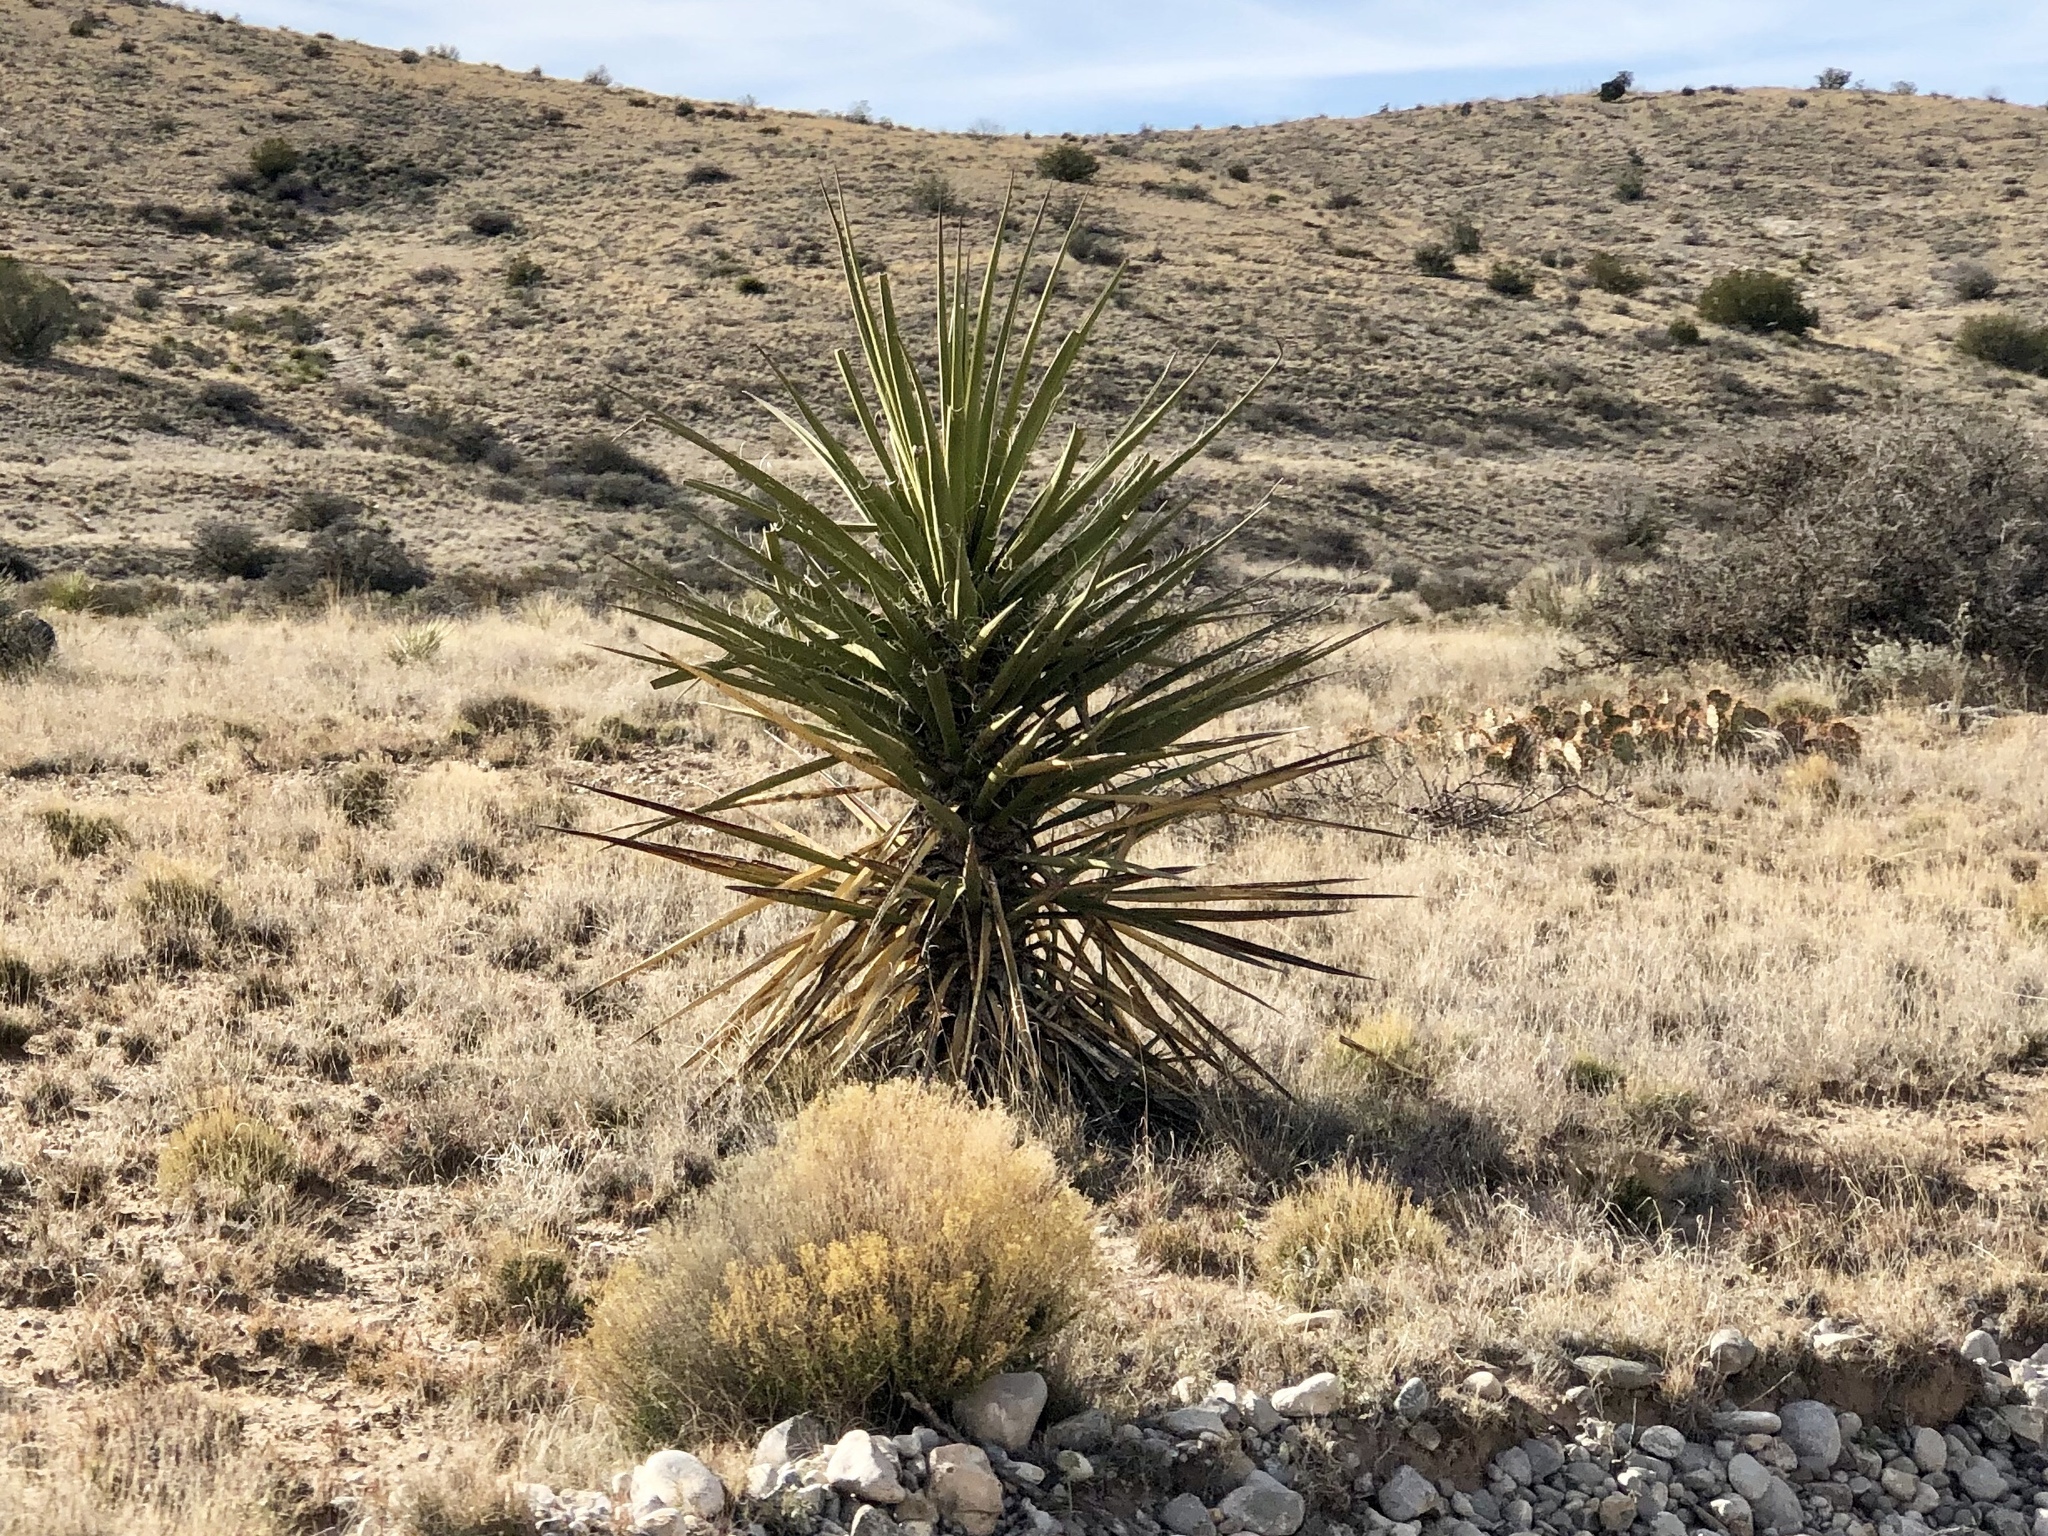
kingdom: Plantae
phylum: Tracheophyta
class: Liliopsida
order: Asparagales
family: Asparagaceae
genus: Yucca
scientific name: Yucca treculiana
